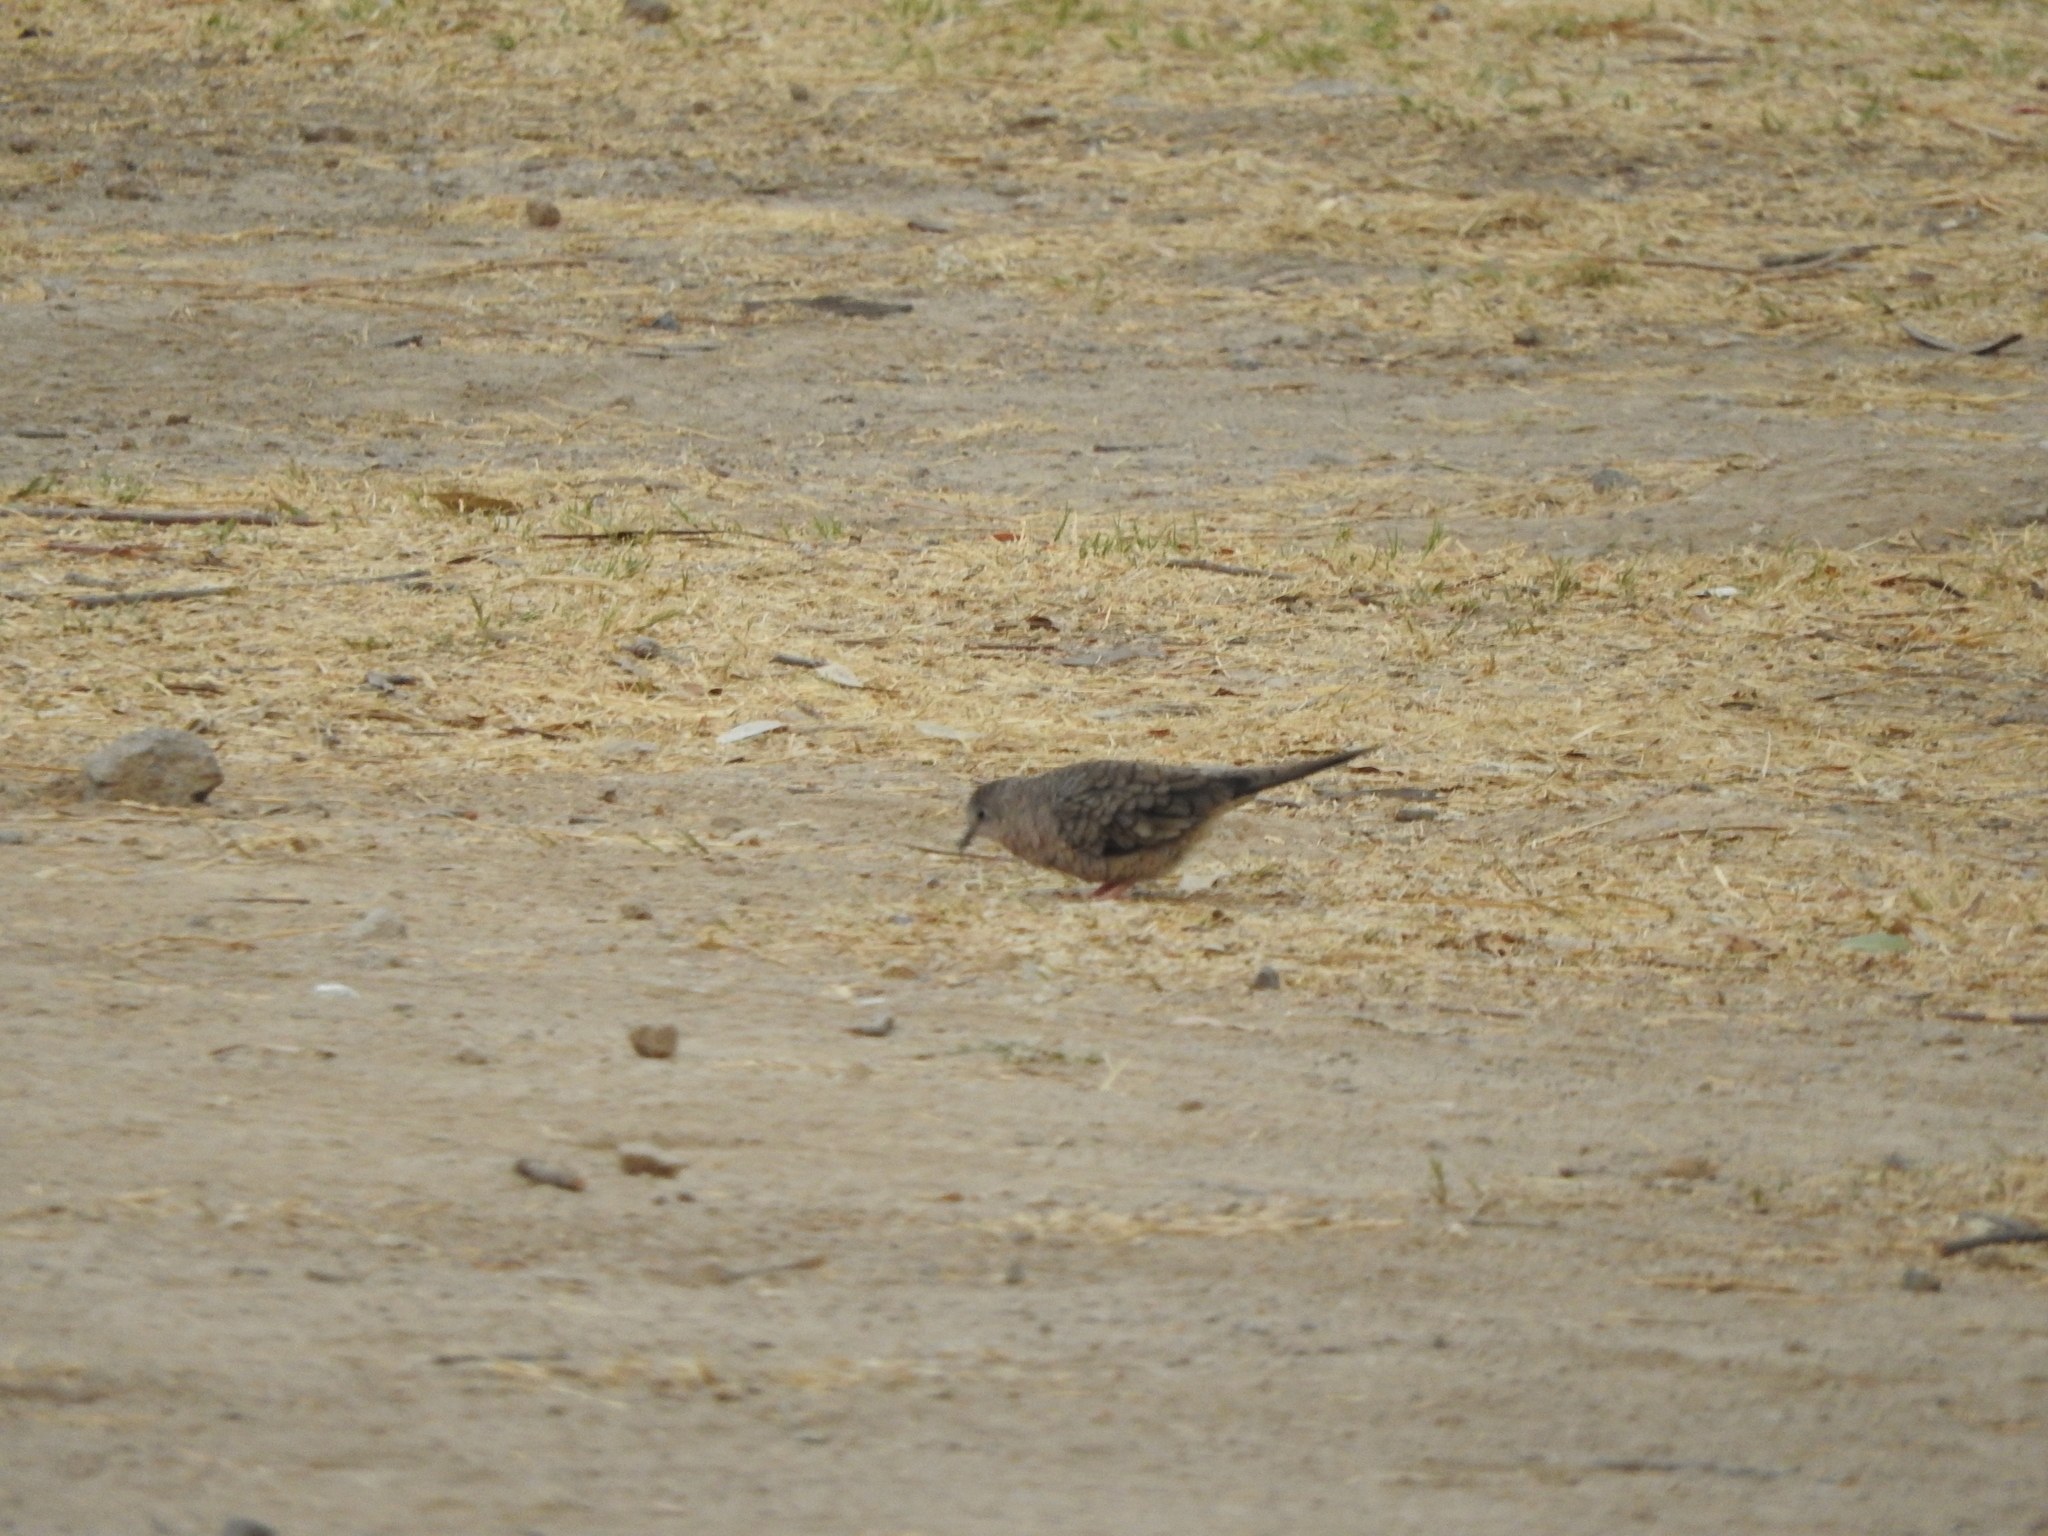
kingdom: Animalia
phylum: Chordata
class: Aves
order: Columbiformes
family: Columbidae
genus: Columbina
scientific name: Columbina inca
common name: Inca dove
